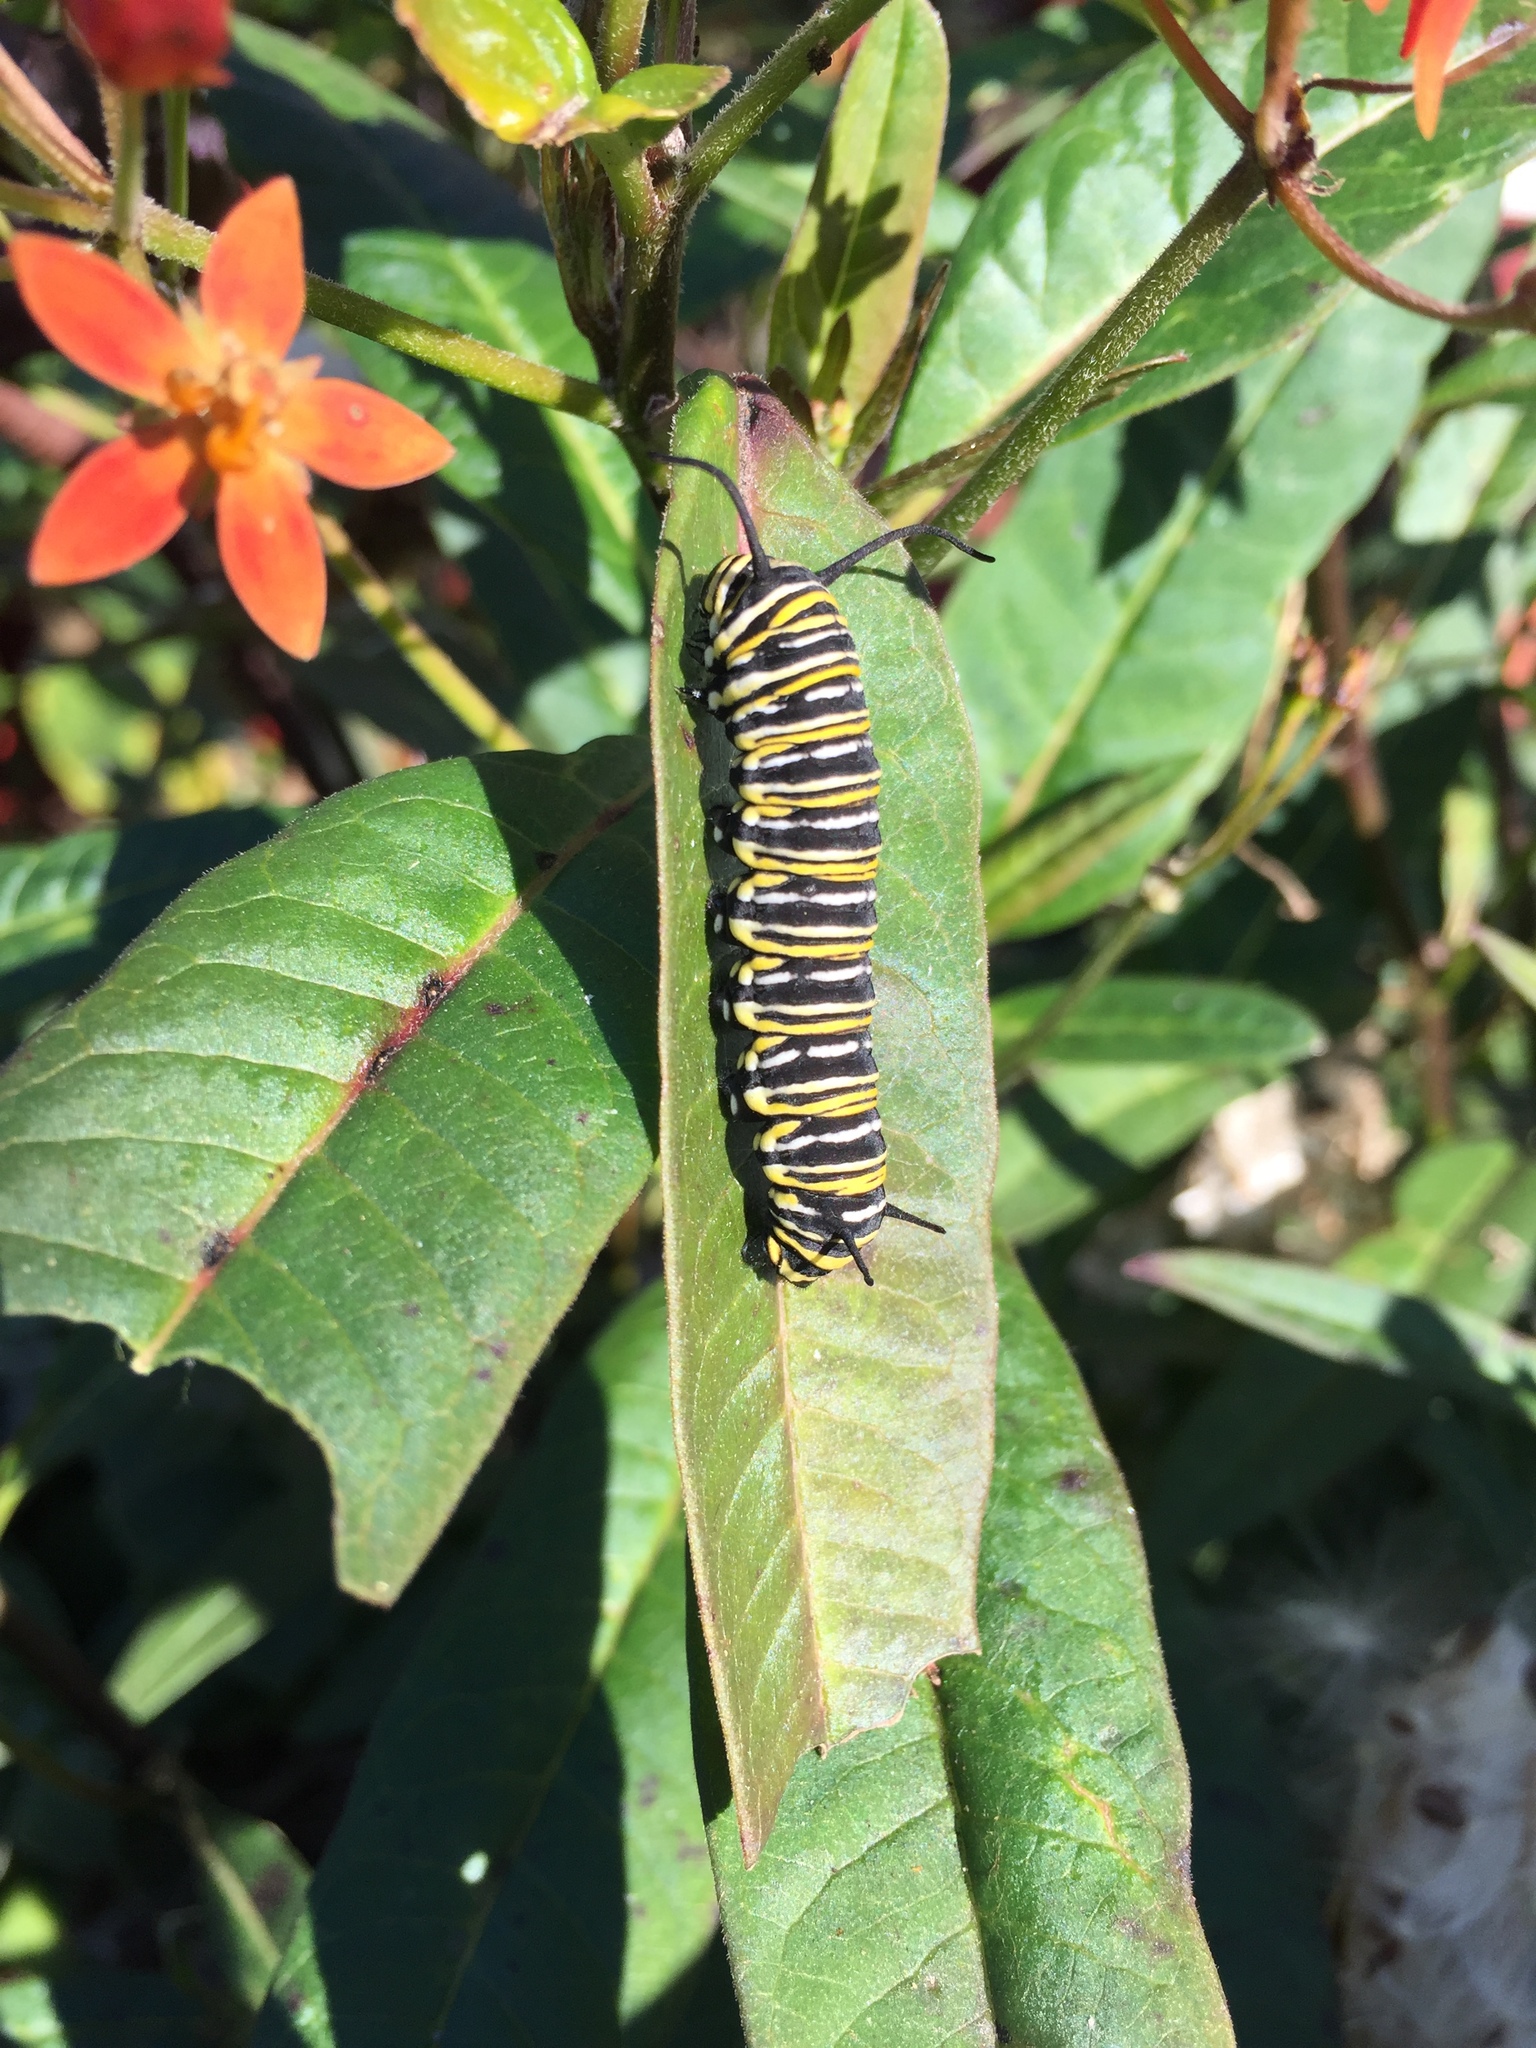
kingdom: Animalia
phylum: Arthropoda
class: Insecta
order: Lepidoptera
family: Nymphalidae
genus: Danaus
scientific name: Danaus plexippus
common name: Monarch
